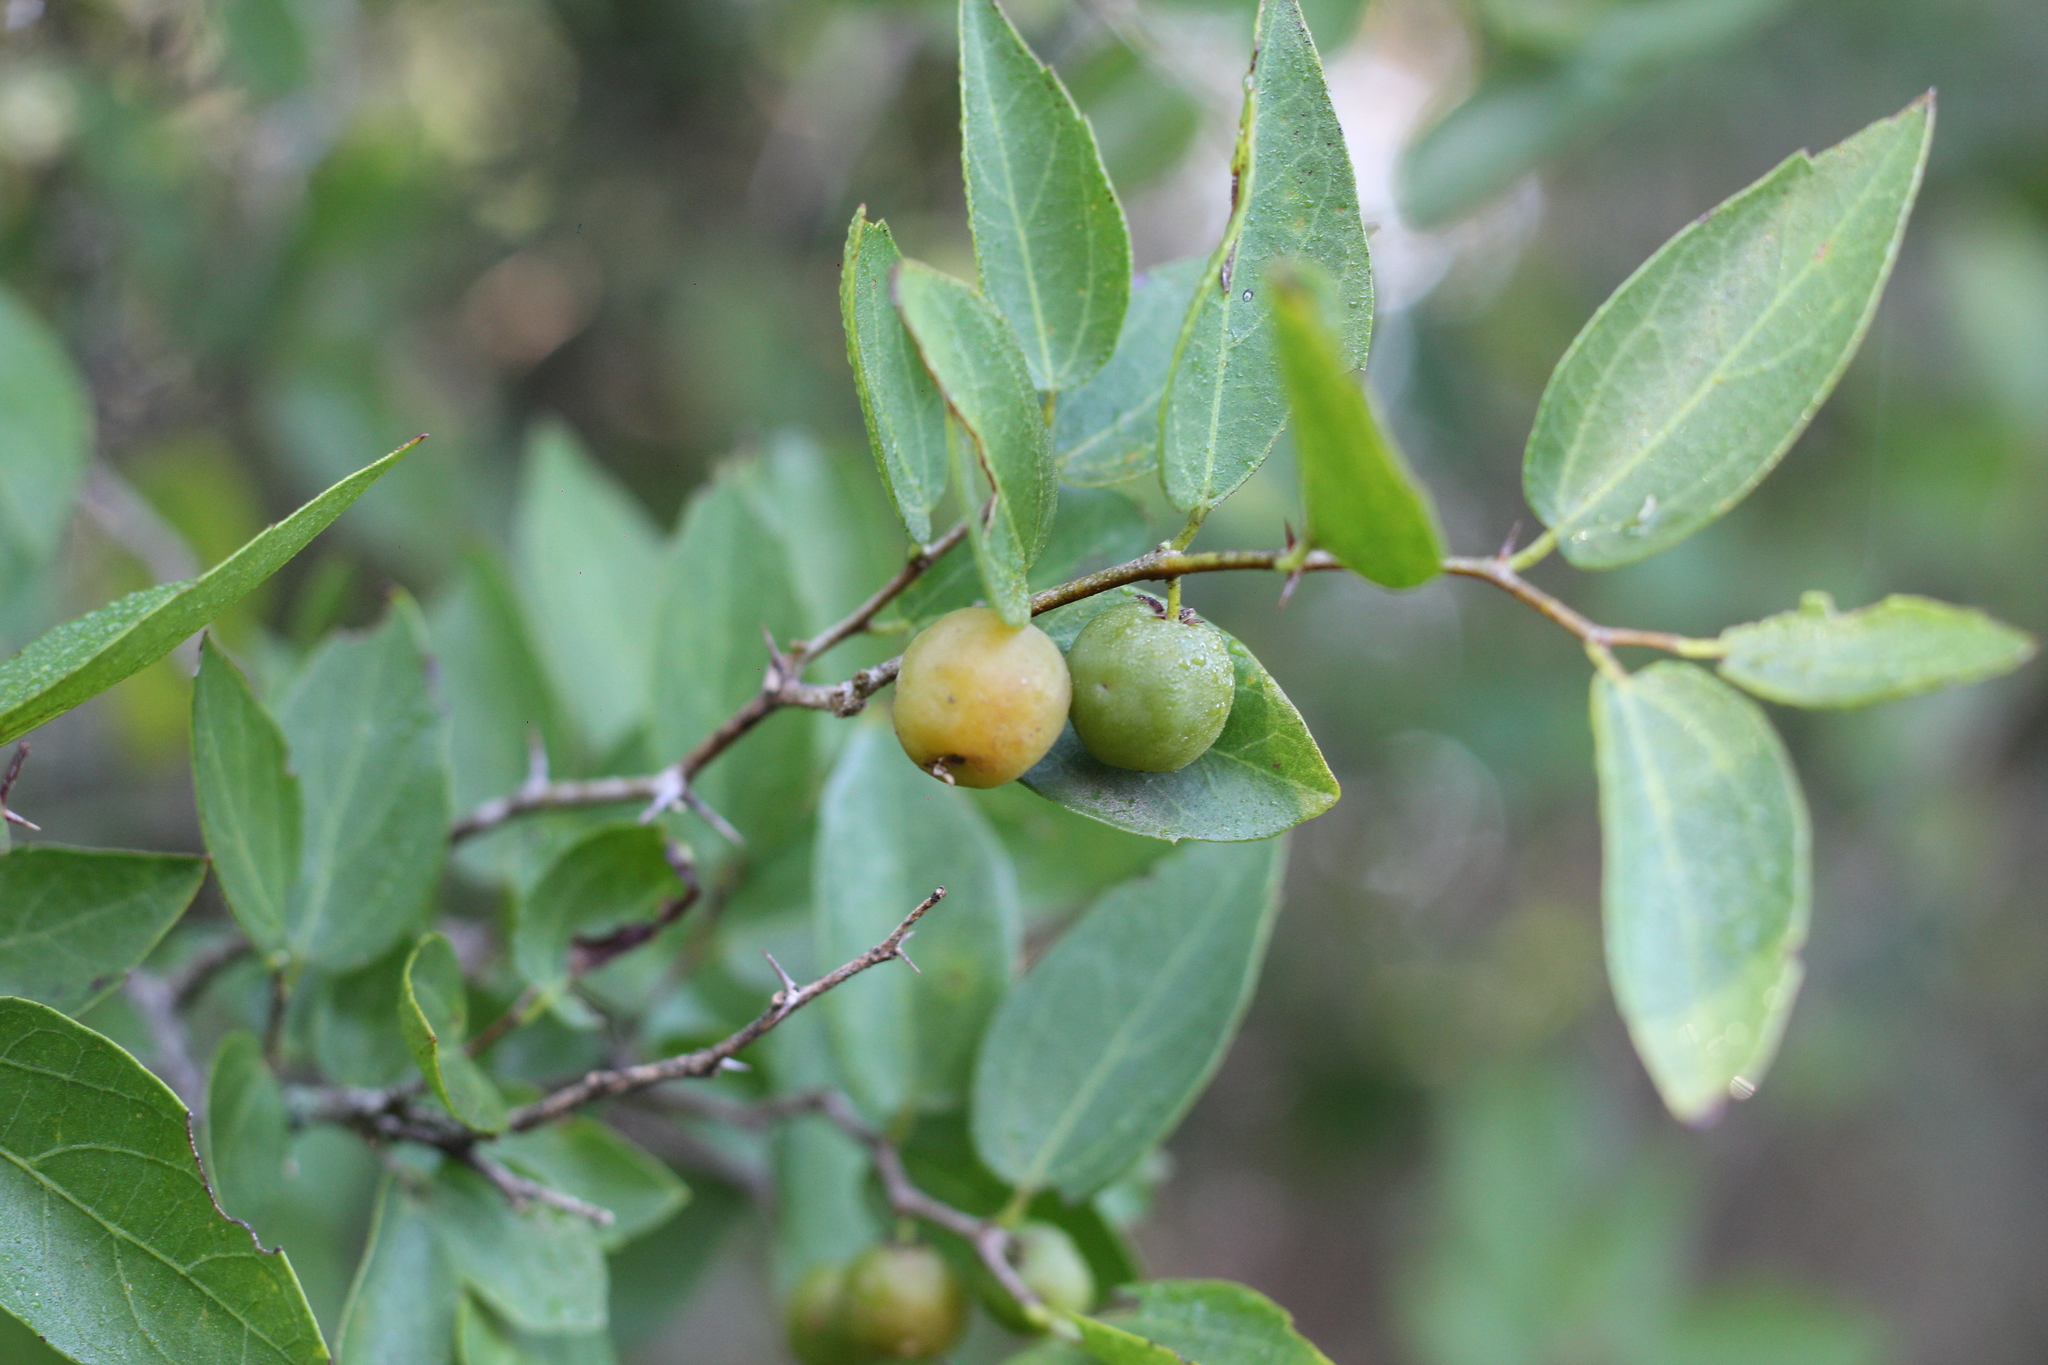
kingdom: Plantae
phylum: Tracheophyta
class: Magnoliopsida
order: Rosales
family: Cannabaceae
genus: Celtis
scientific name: Celtis tala
